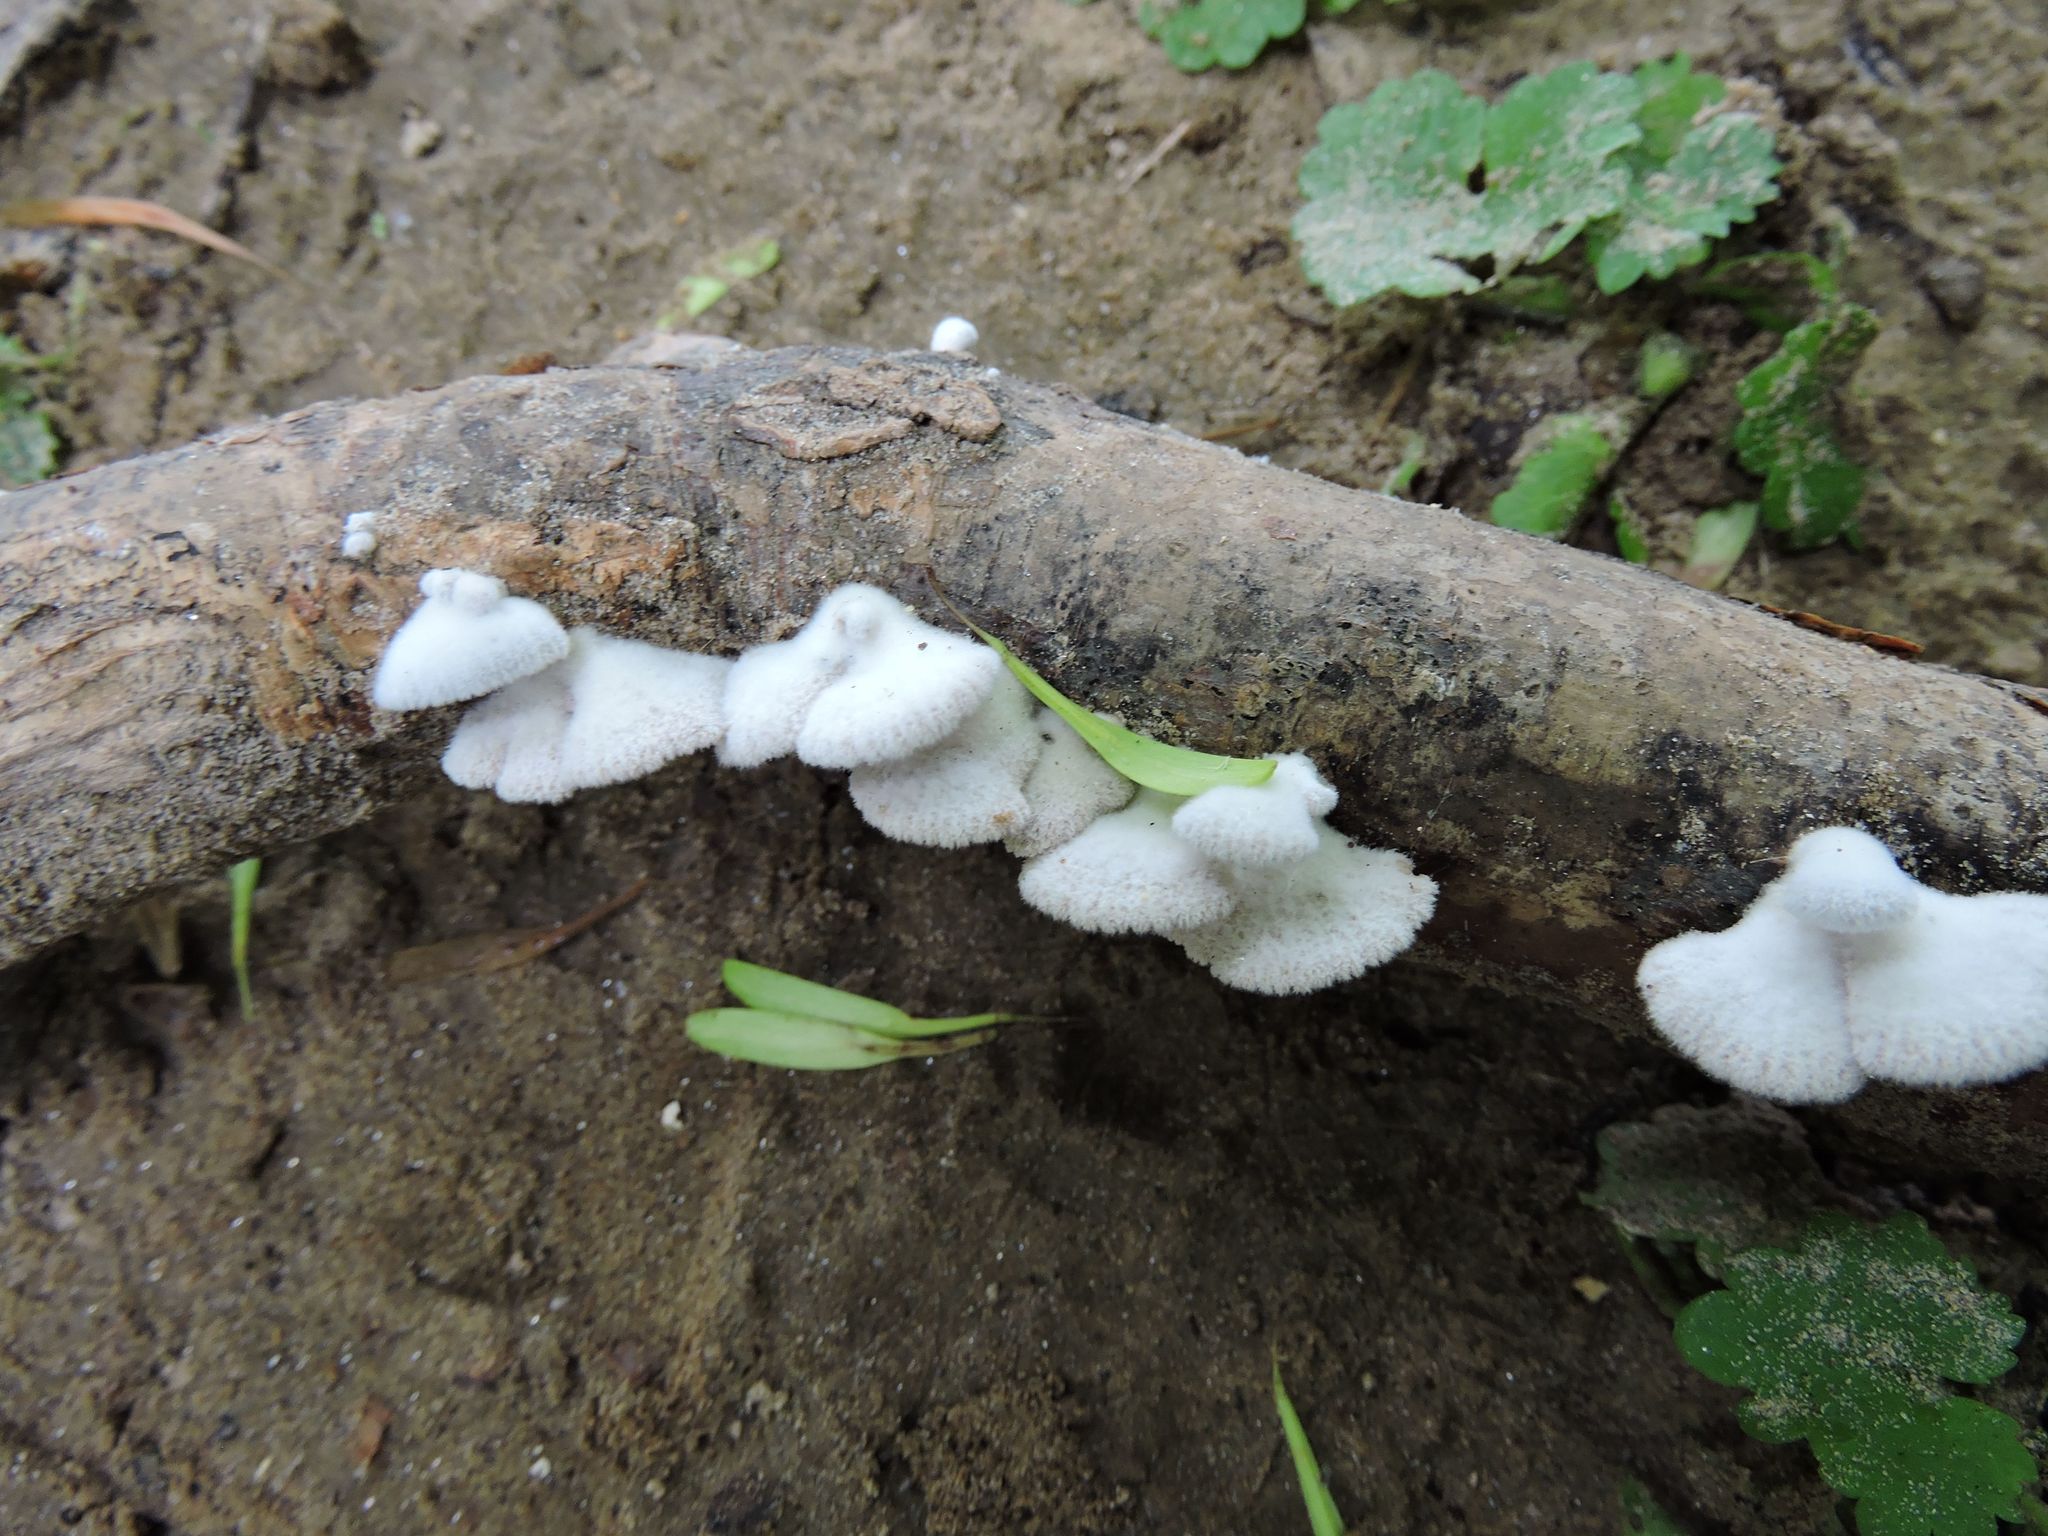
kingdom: Fungi
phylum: Basidiomycota
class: Agaricomycetes
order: Agaricales
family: Schizophyllaceae
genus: Schizophyllum
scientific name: Schizophyllum commune
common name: Common porecrust
